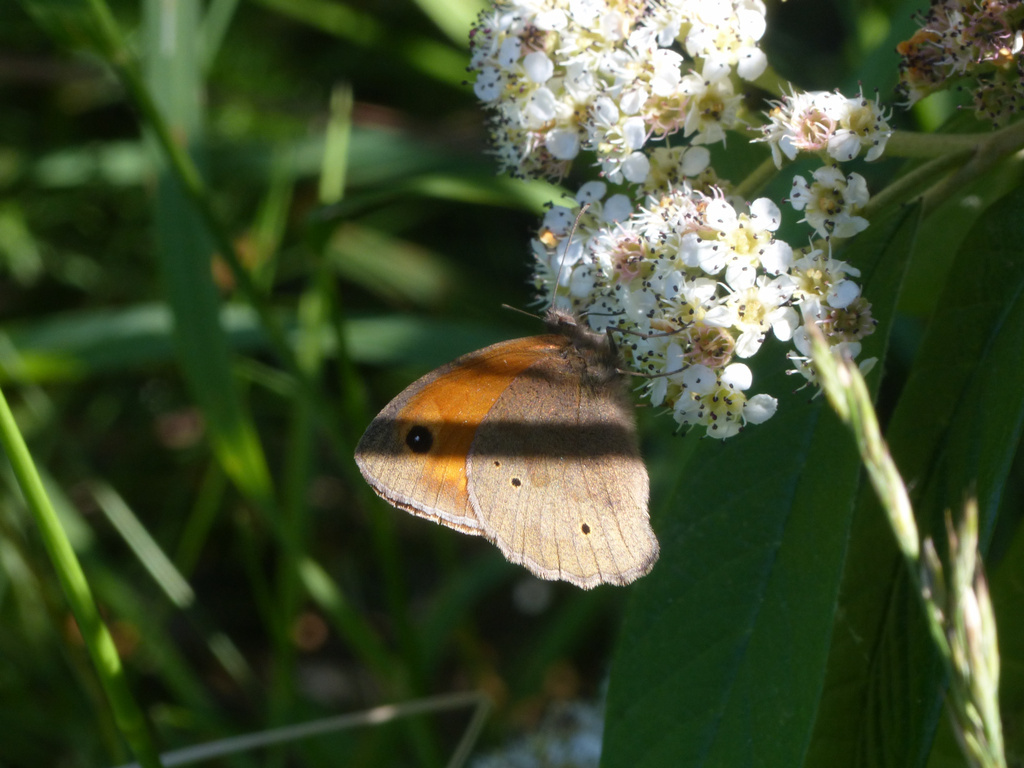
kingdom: Animalia
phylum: Arthropoda
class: Insecta
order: Lepidoptera
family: Nymphalidae
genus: Maniola
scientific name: Maniola jurtina
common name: Meadow brown
